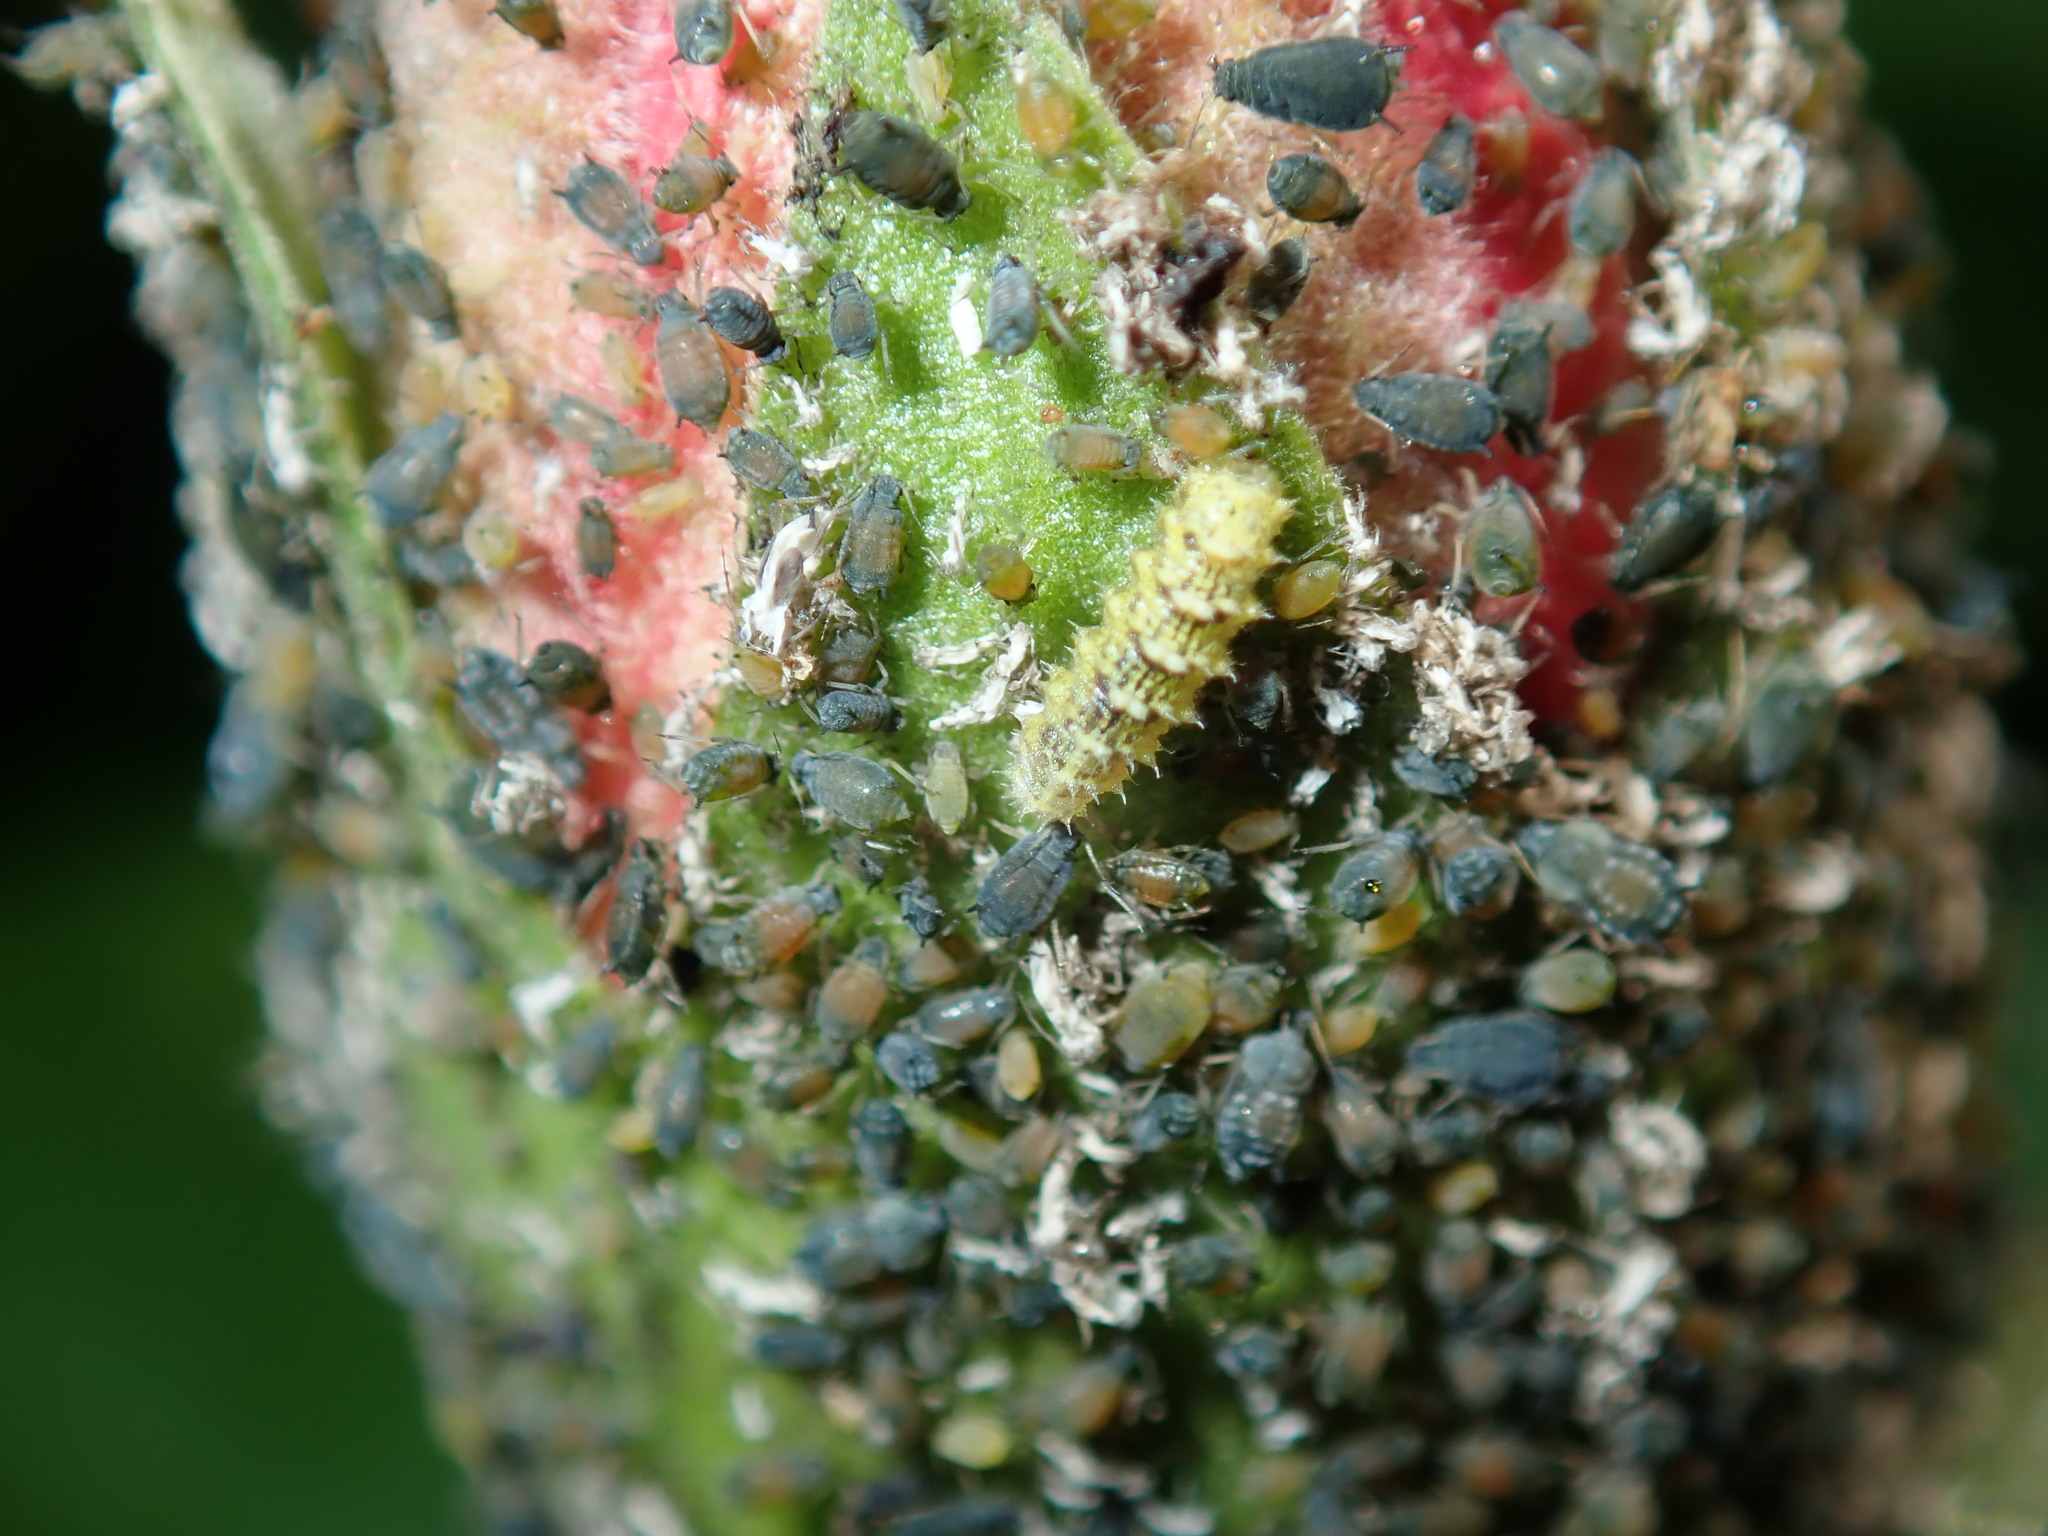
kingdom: Animalia
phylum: Arthropoda
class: Insecta
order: Hemiptera
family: Aphididae
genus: Aphis
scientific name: Aphis gossypii
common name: Melon aphid
